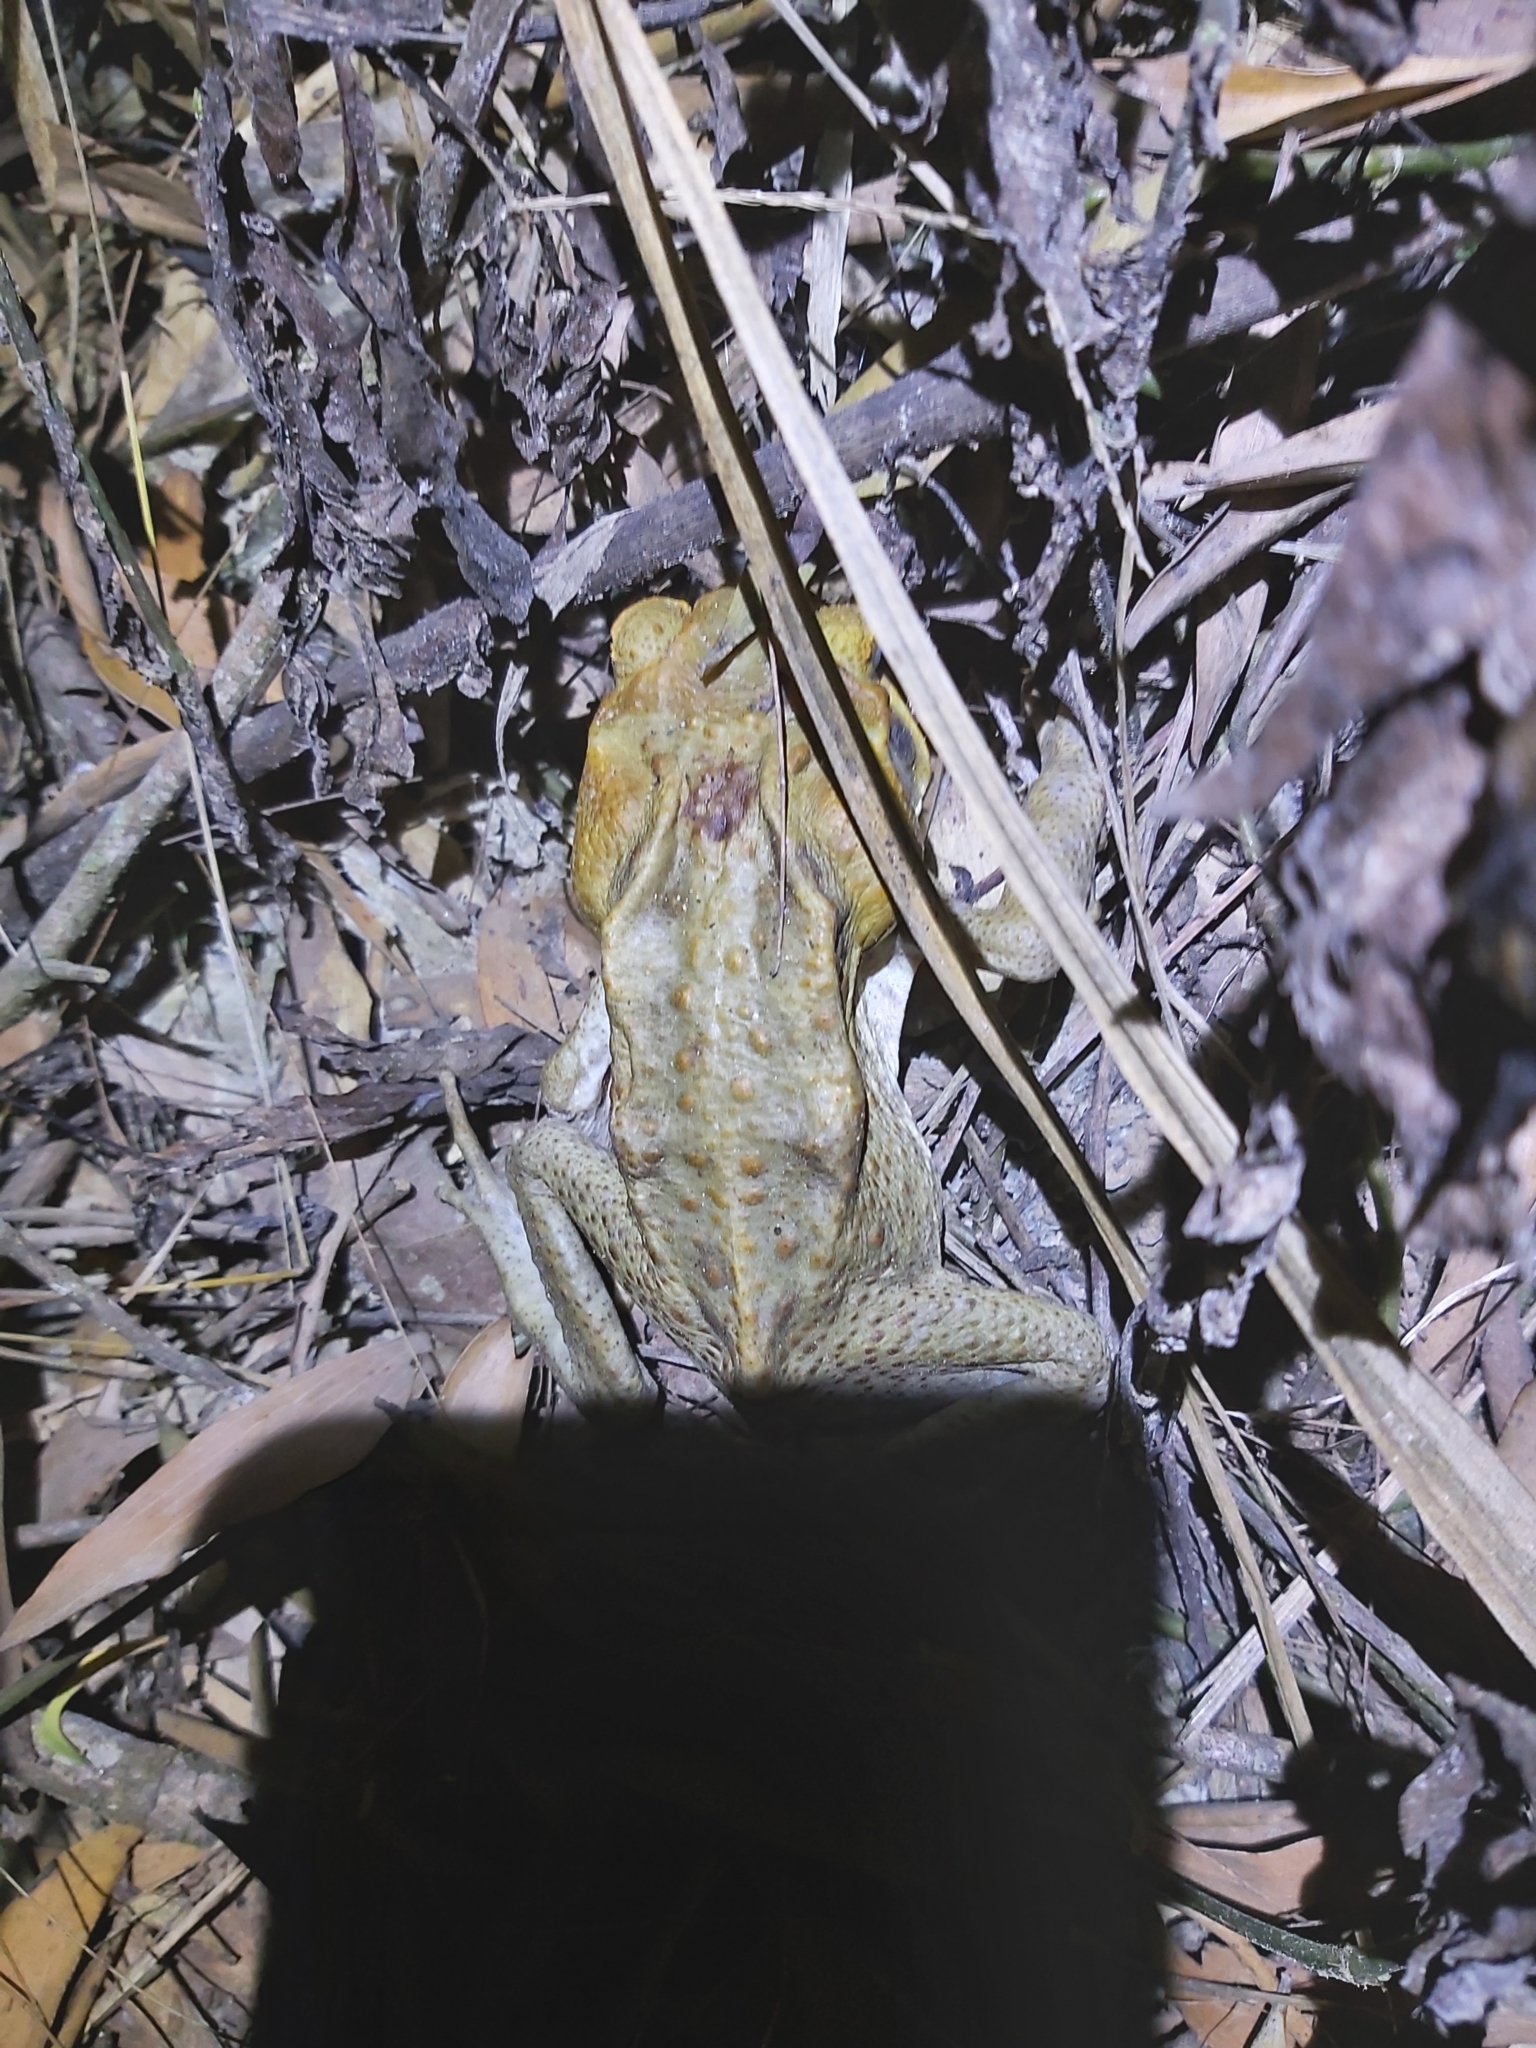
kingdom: Animalia
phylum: Chordata
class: Amphibia
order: Anura
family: Bufonidae
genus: Rhinella
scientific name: Rhinella marina
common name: Cane toad
